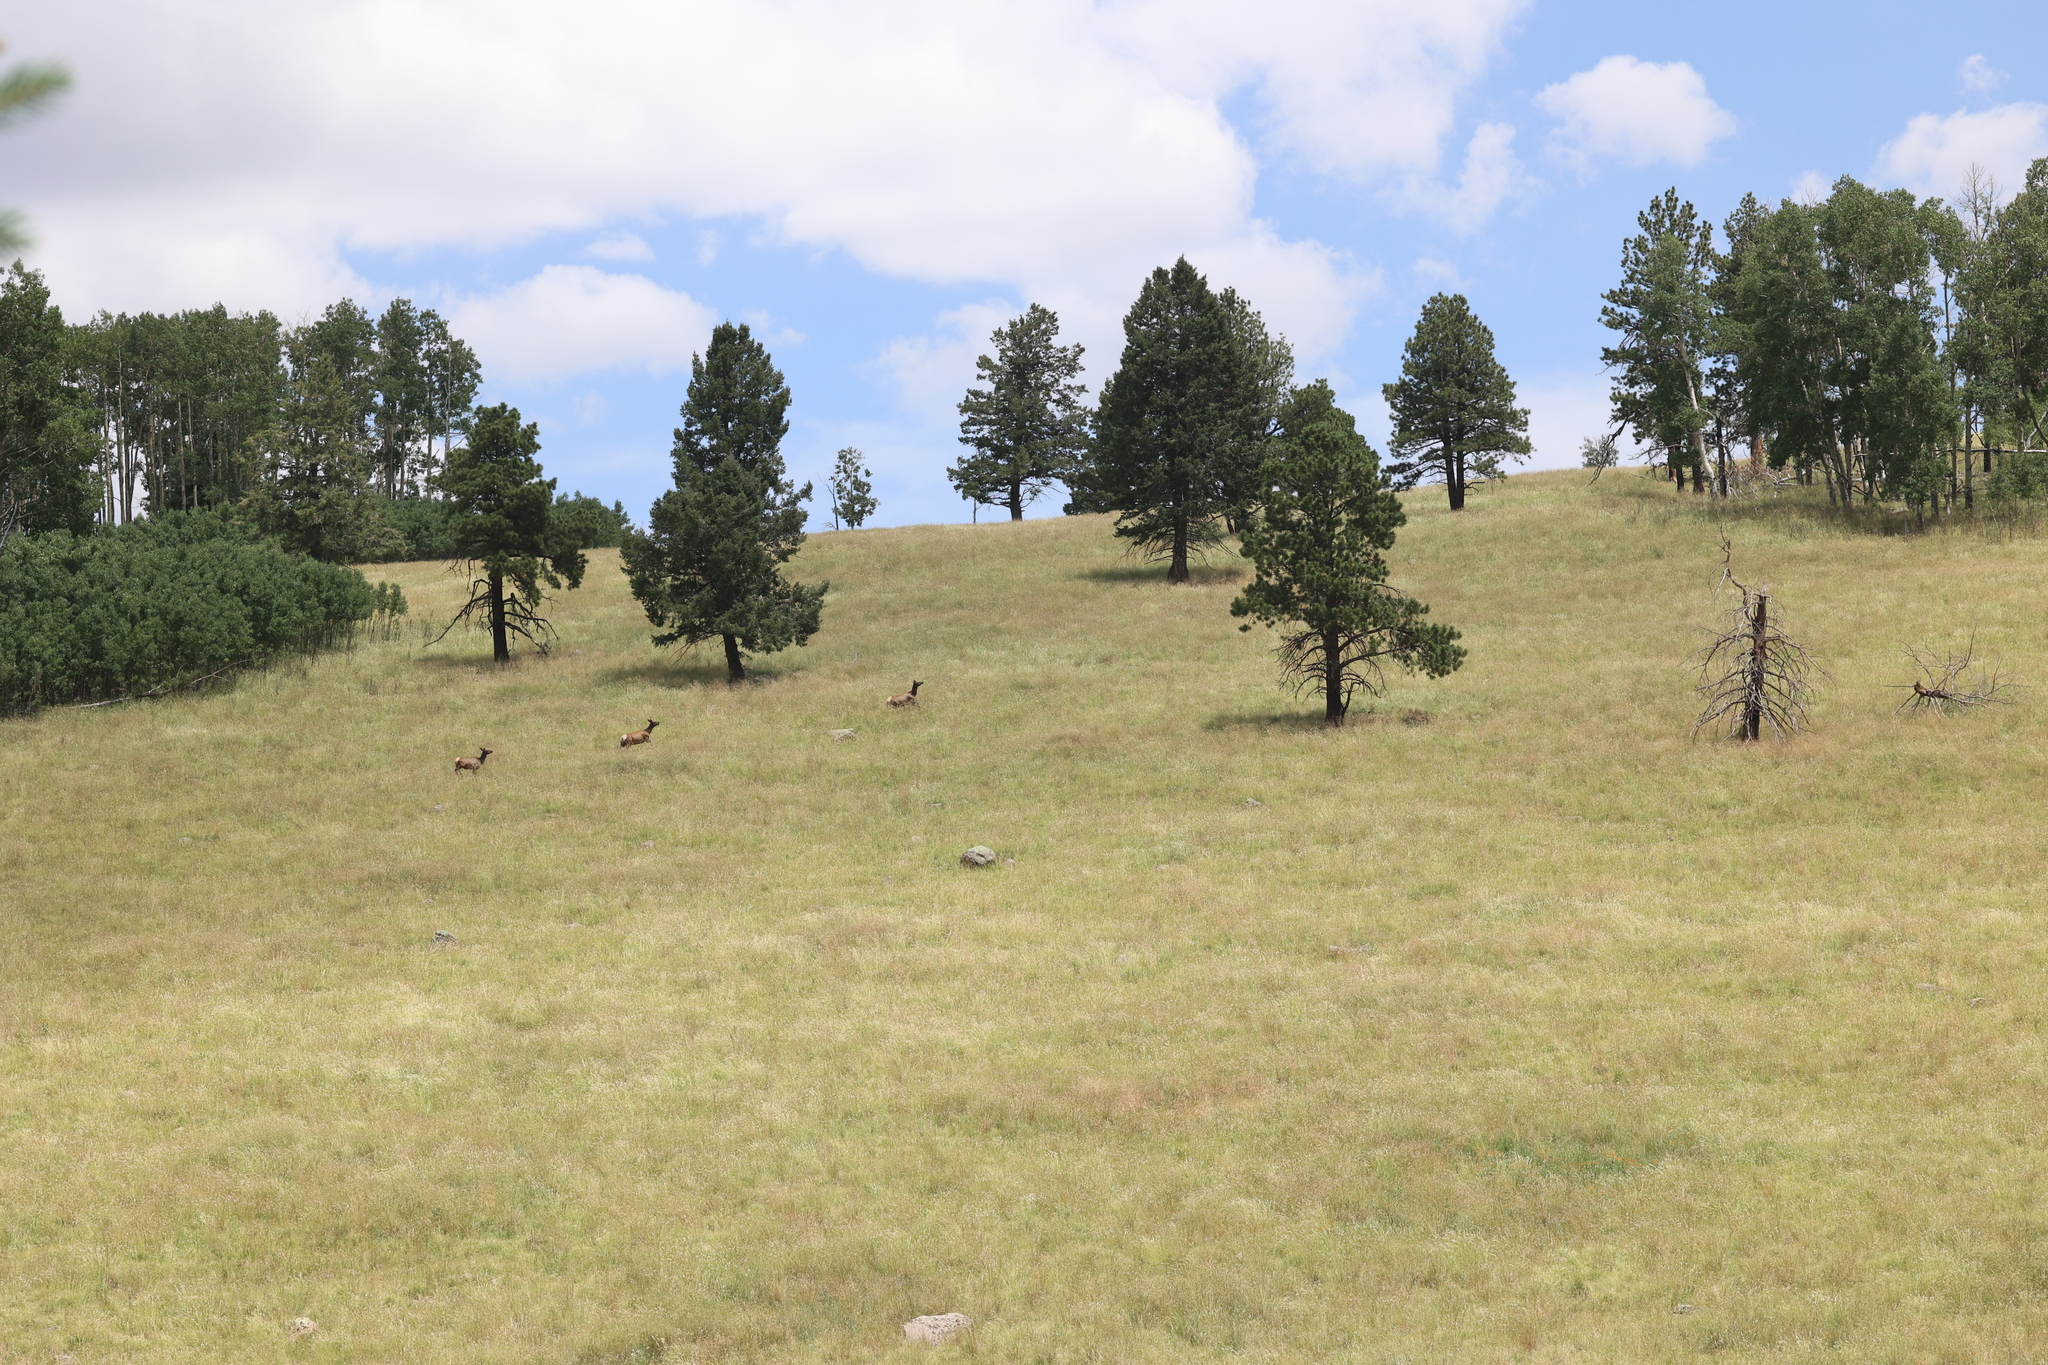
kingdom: Animalia
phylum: Chordata
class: Mammalia
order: Artiodactyla
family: Cervidae
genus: Cervus
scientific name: Cervus elaphus
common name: Red deer
